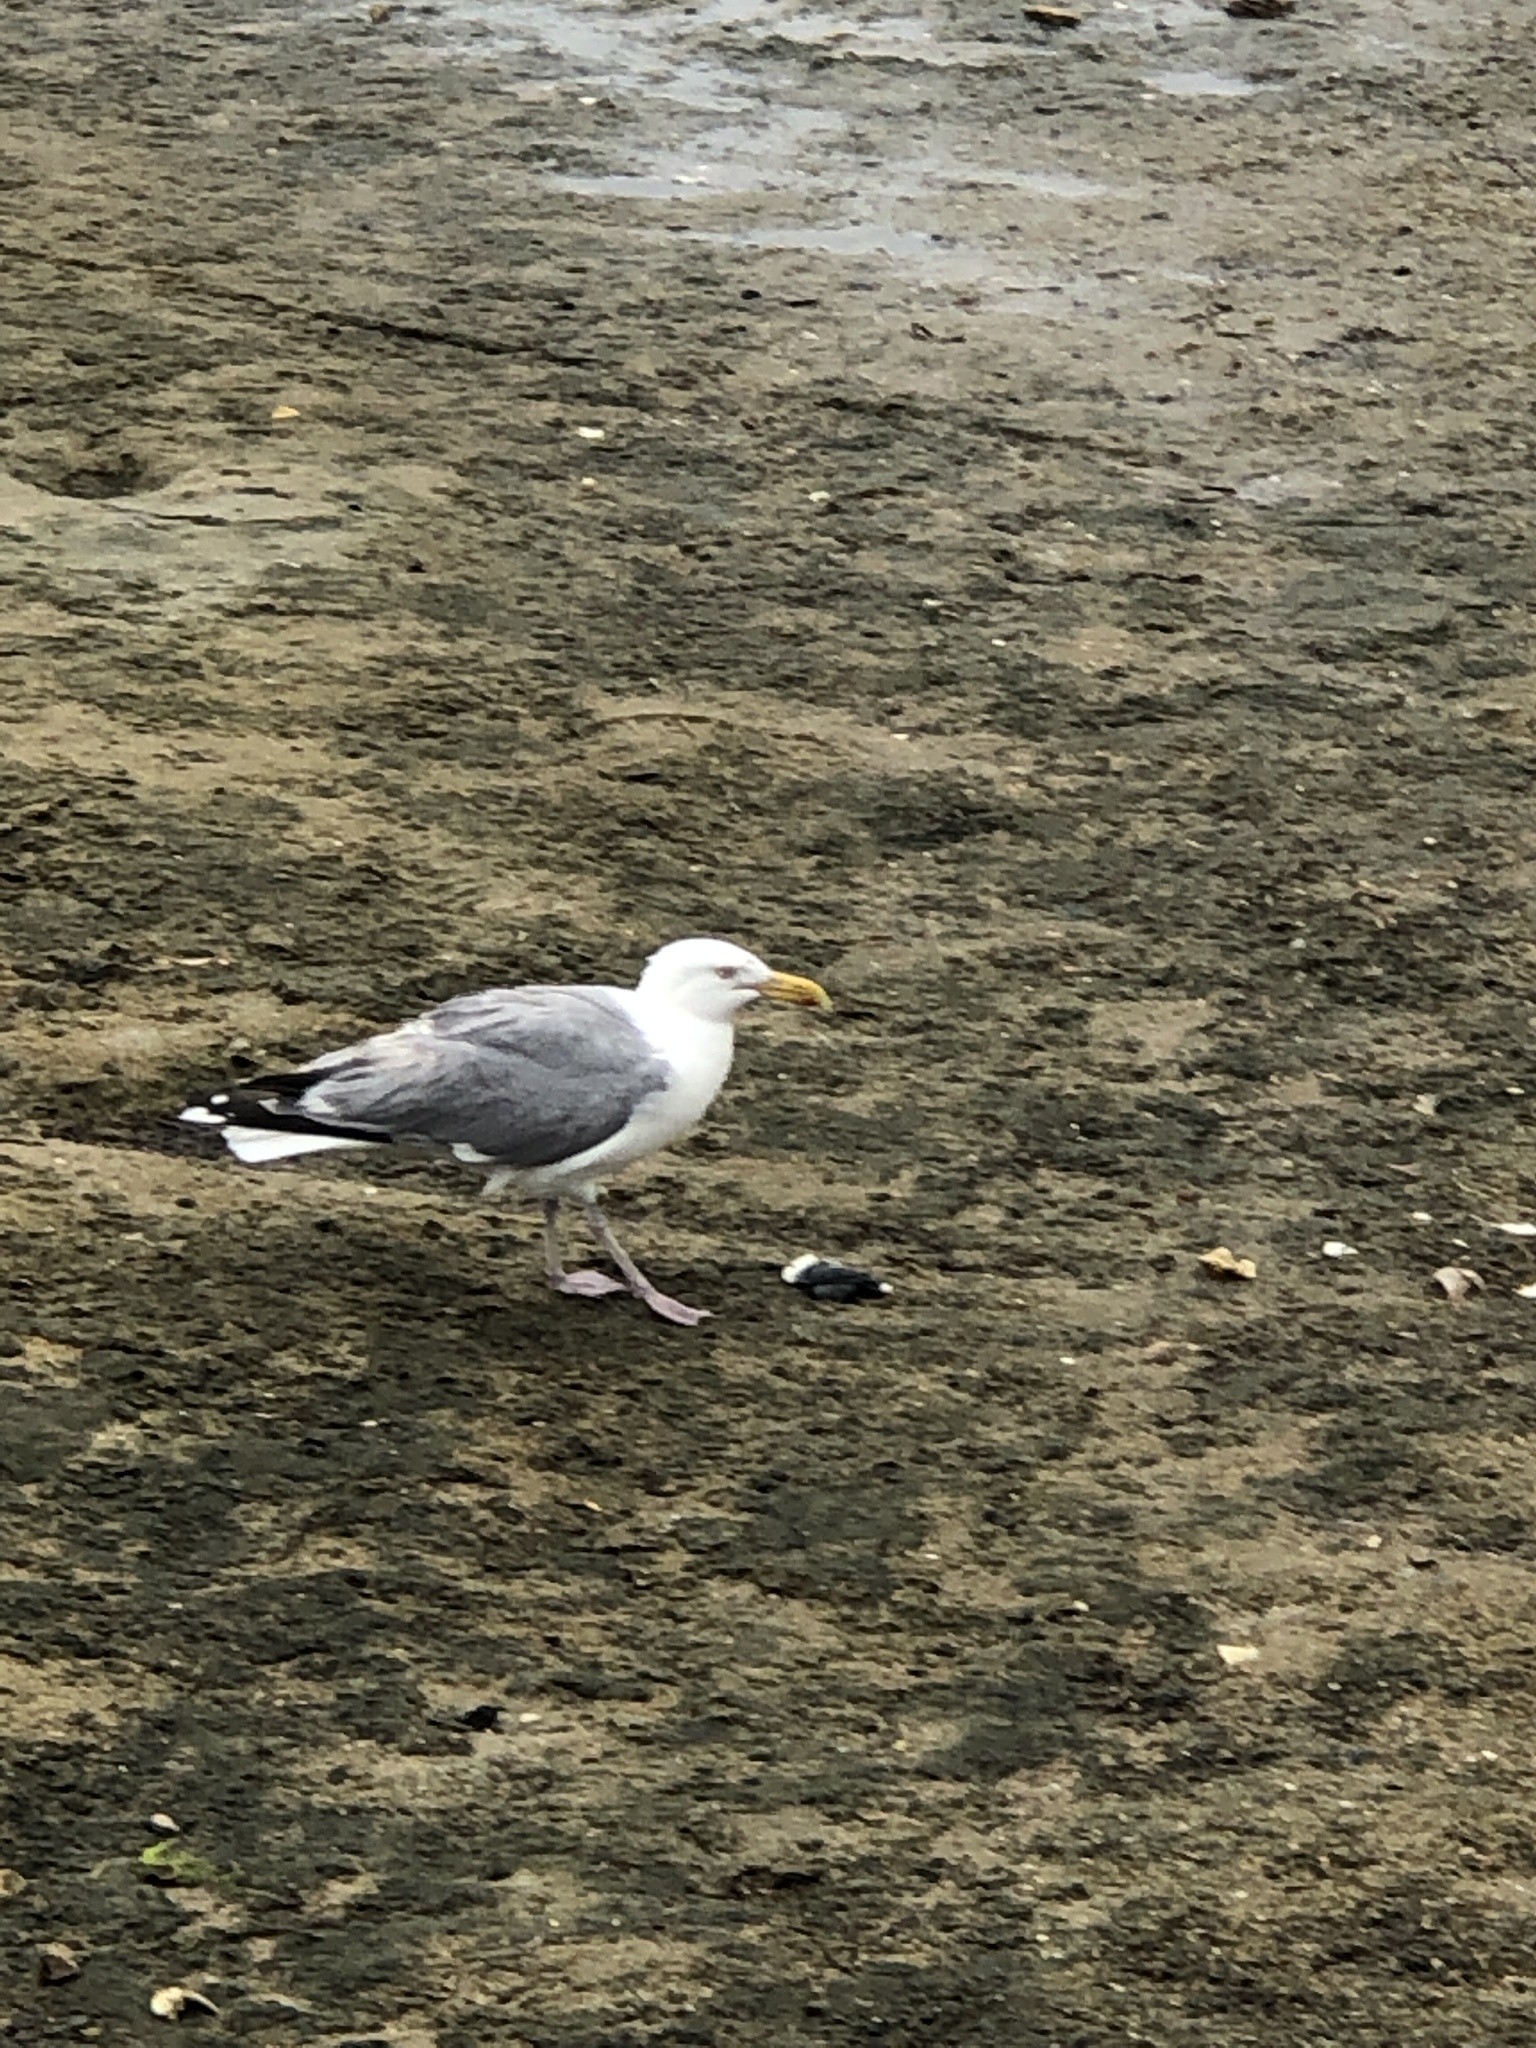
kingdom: Animalia
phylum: Chordata
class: Aves
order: Charadriiformes
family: Laridae
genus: Larus
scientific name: Larus argentatus
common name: Herring gull
